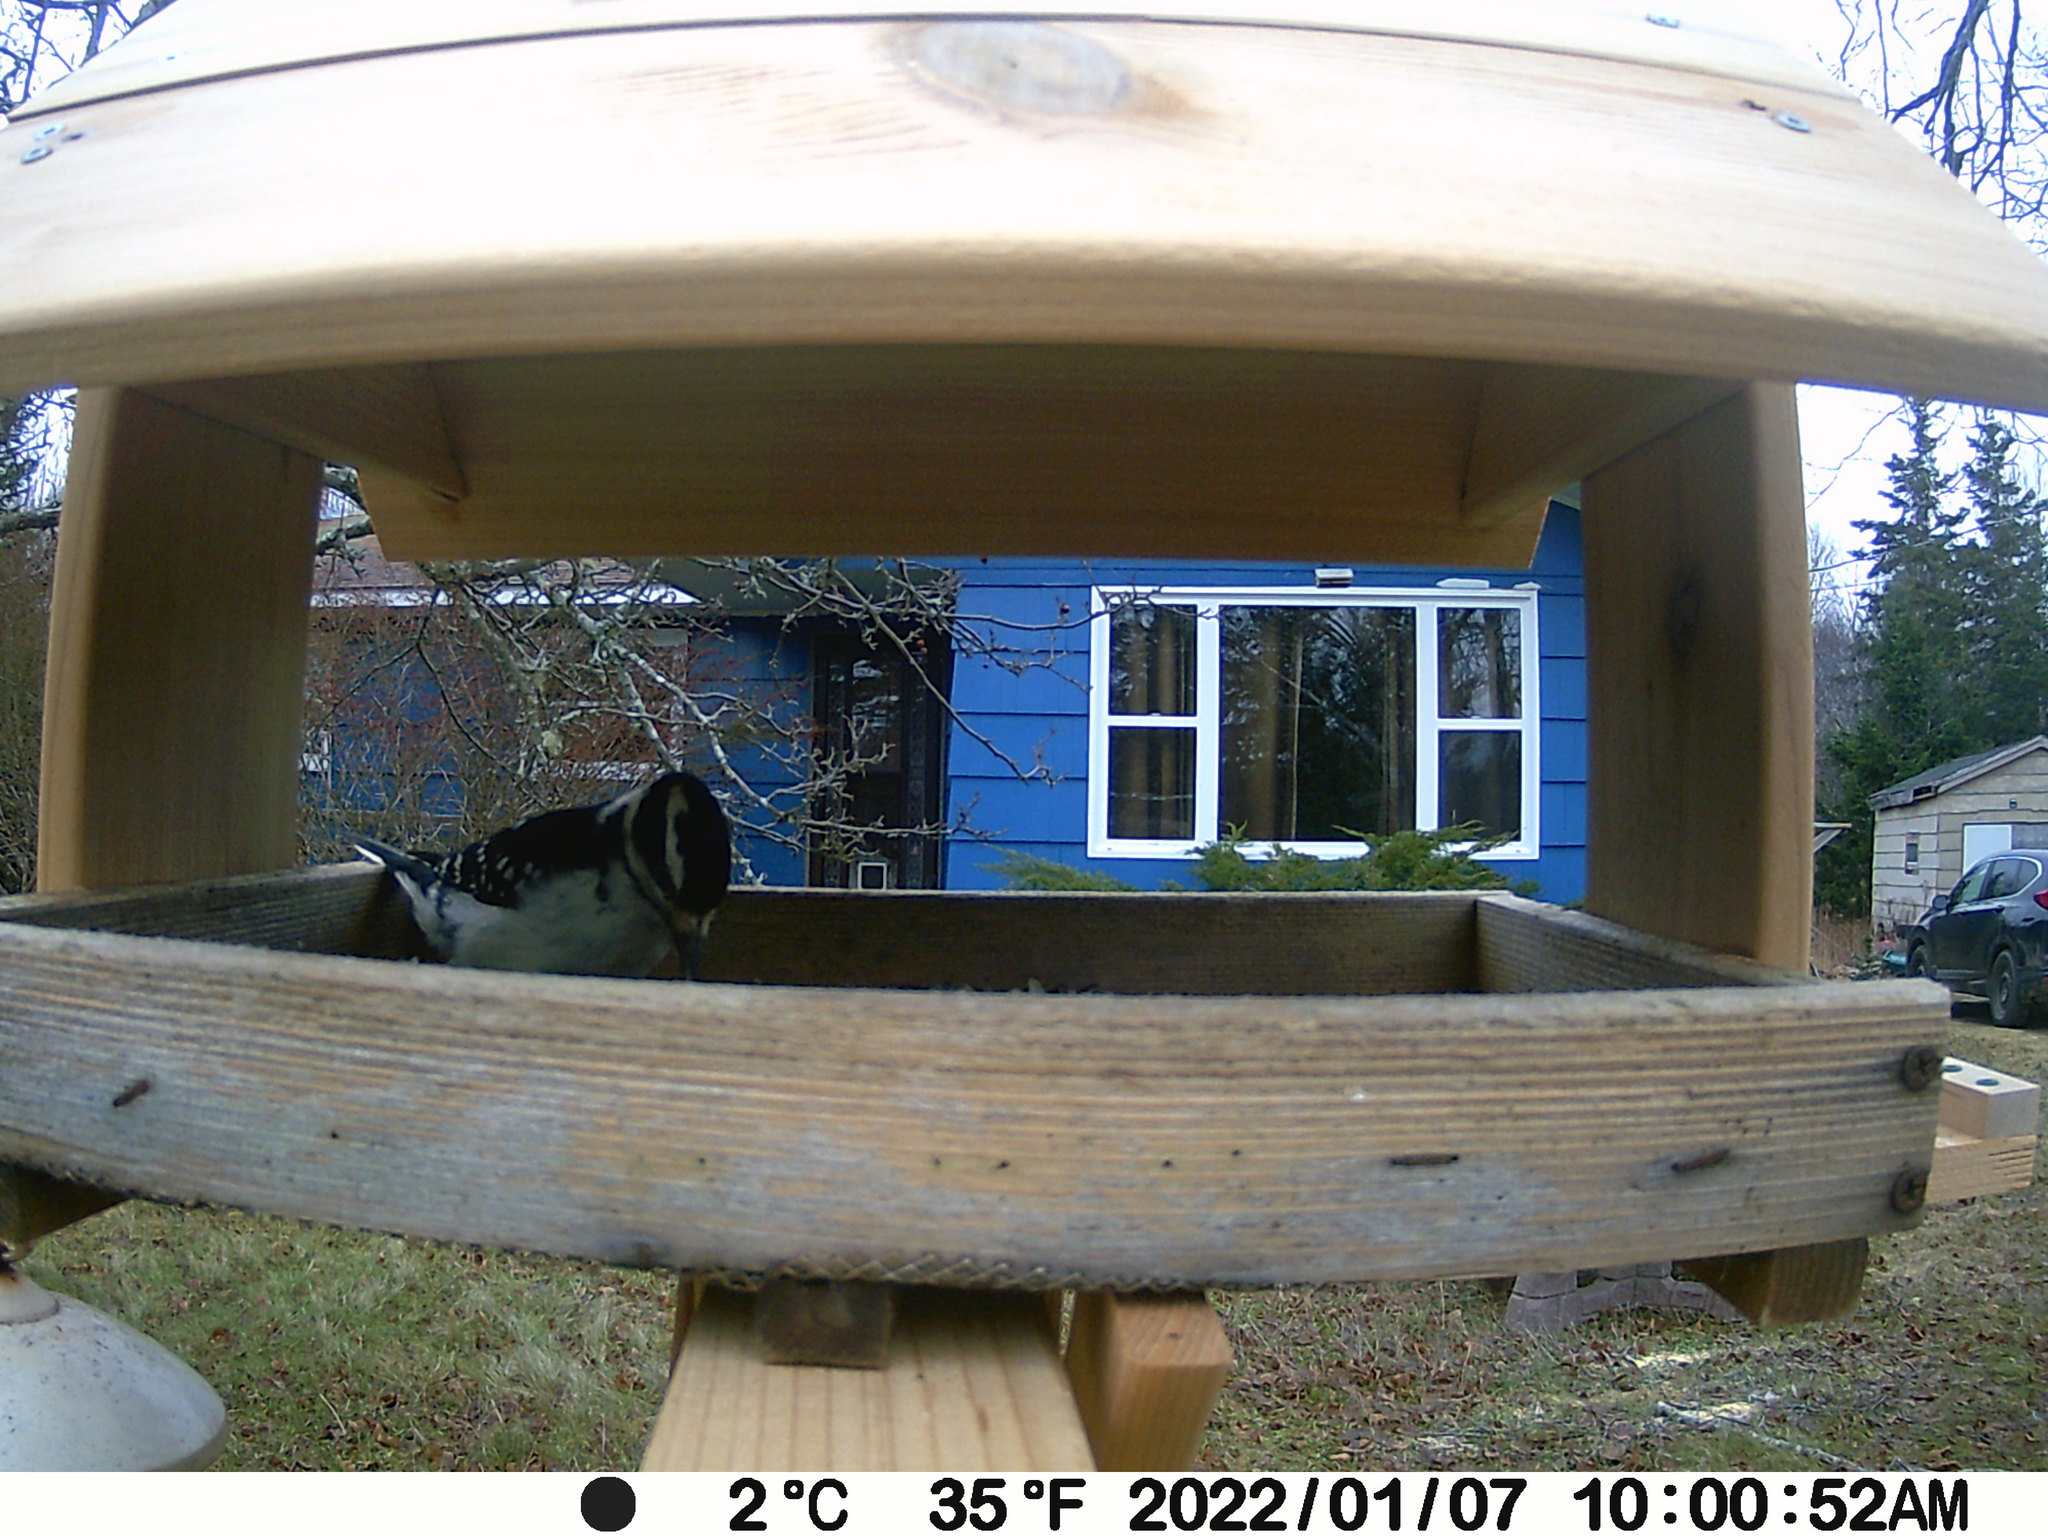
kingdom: Animalia
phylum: Chordata
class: Aves
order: Piciformes
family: Picidae
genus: Leuconotopicus
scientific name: Leuconotopicus villosus
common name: Hairy woodpecker
